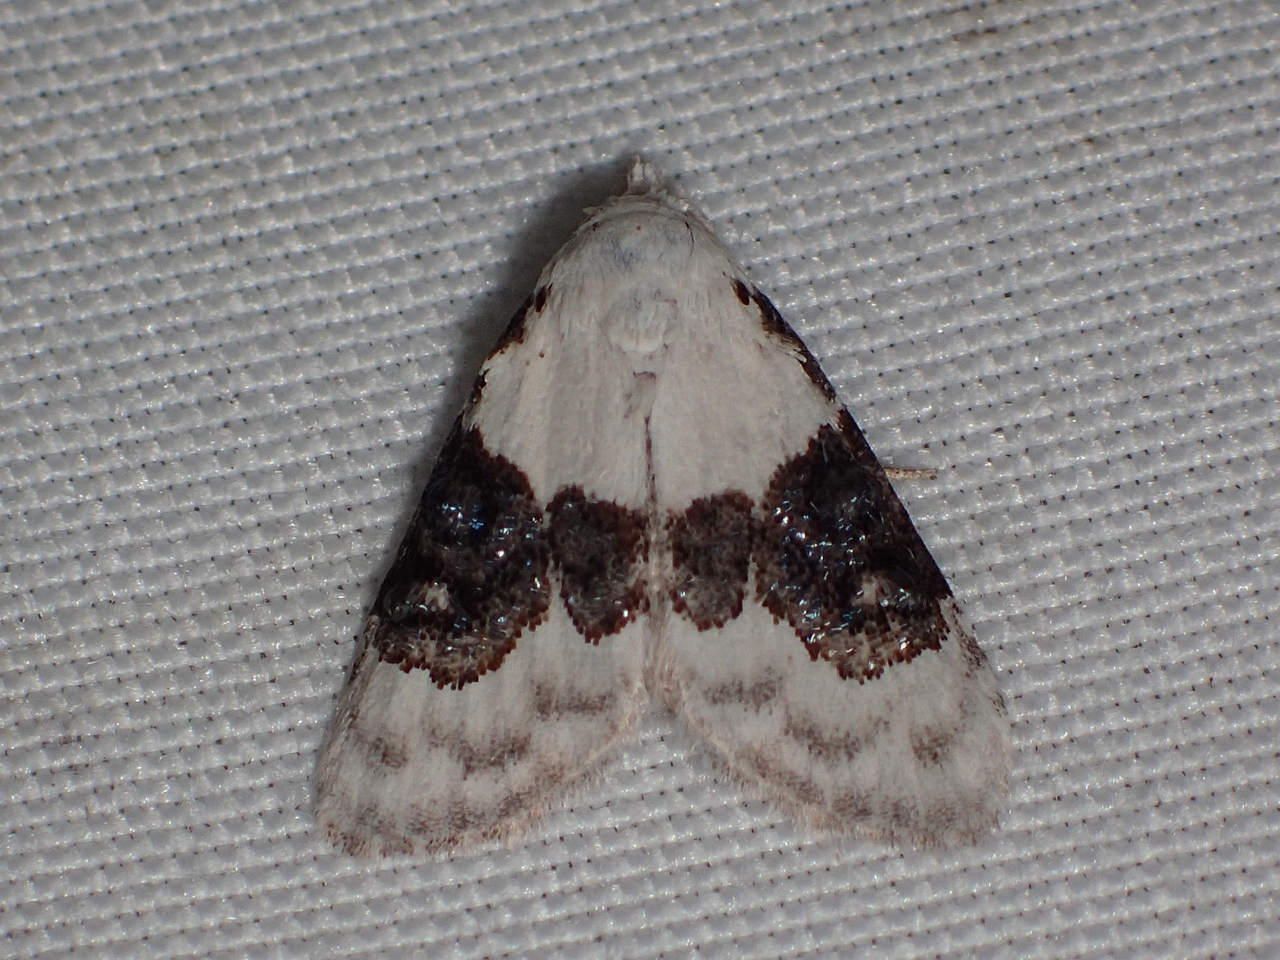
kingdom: Animalia
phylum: Arthropoda
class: Insecta
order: Lepidoptera
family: Nolidae
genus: Nola
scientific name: Nola pustulata
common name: Sharp-blotched nola moth
